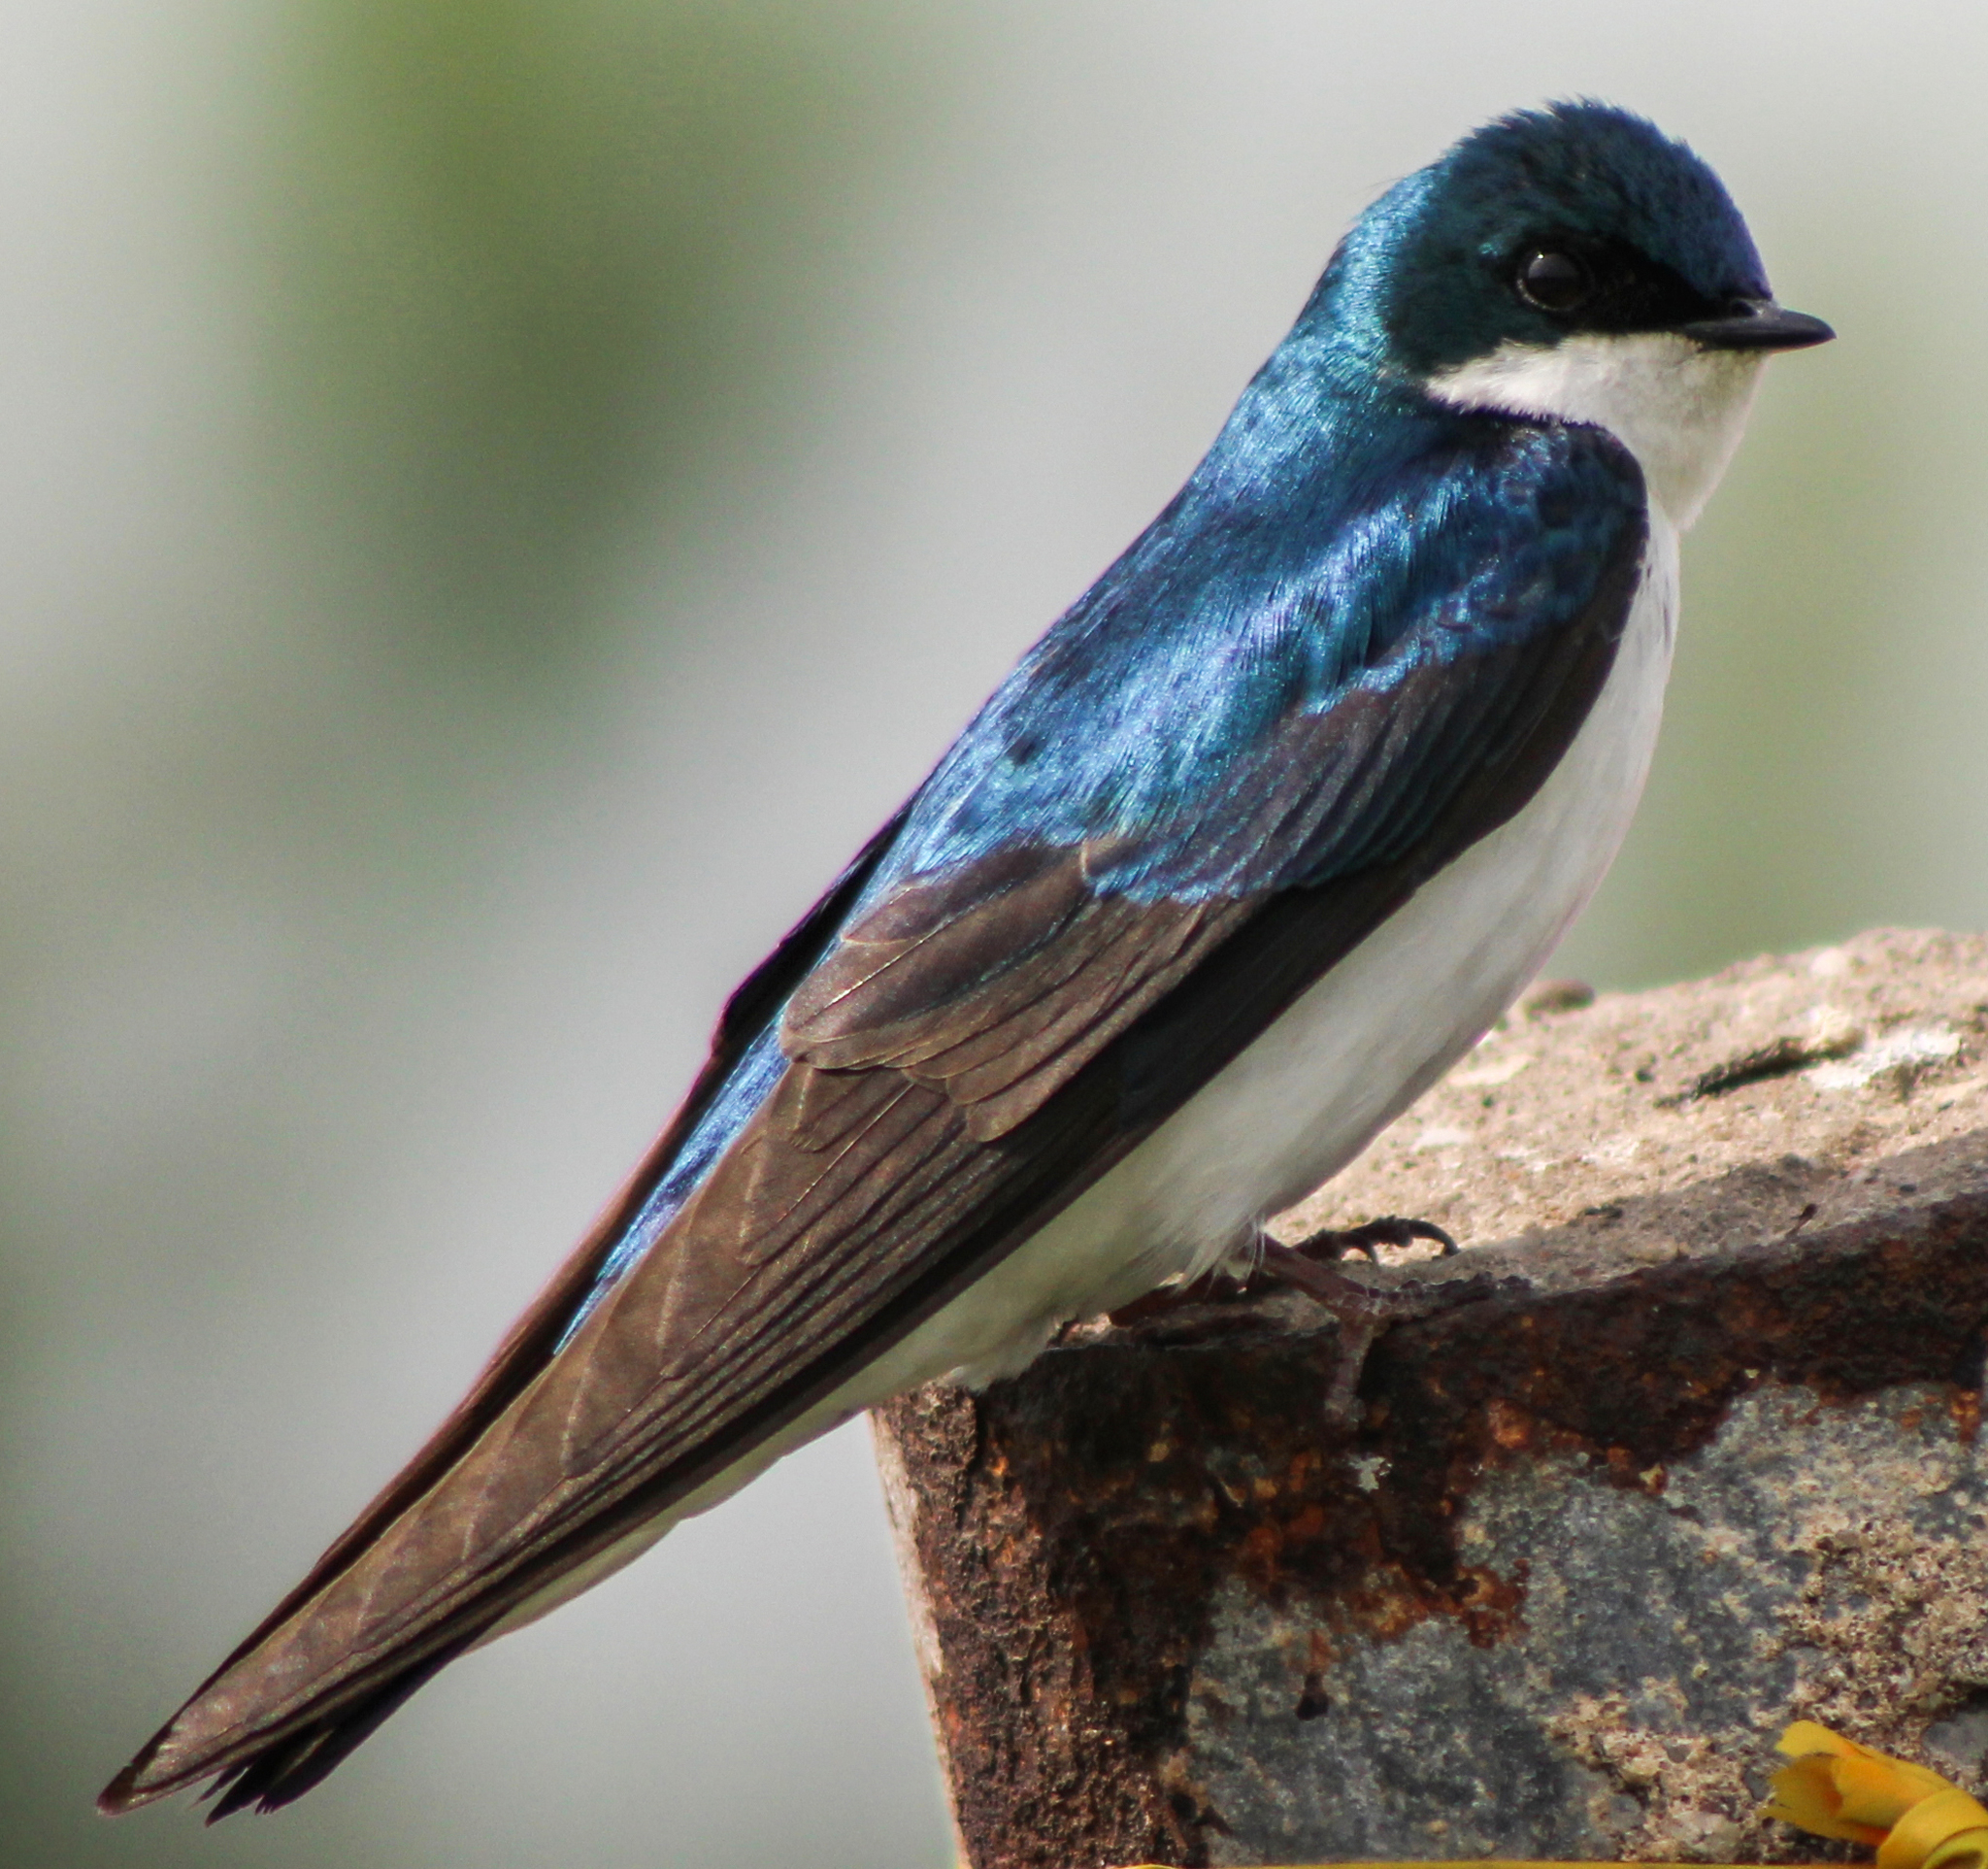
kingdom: Animalia
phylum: Chordata
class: Aves
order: Passeriformes
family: Hirundinidae
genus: Tachycineta
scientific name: Tachycineta bicolor
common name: Tree swallow
